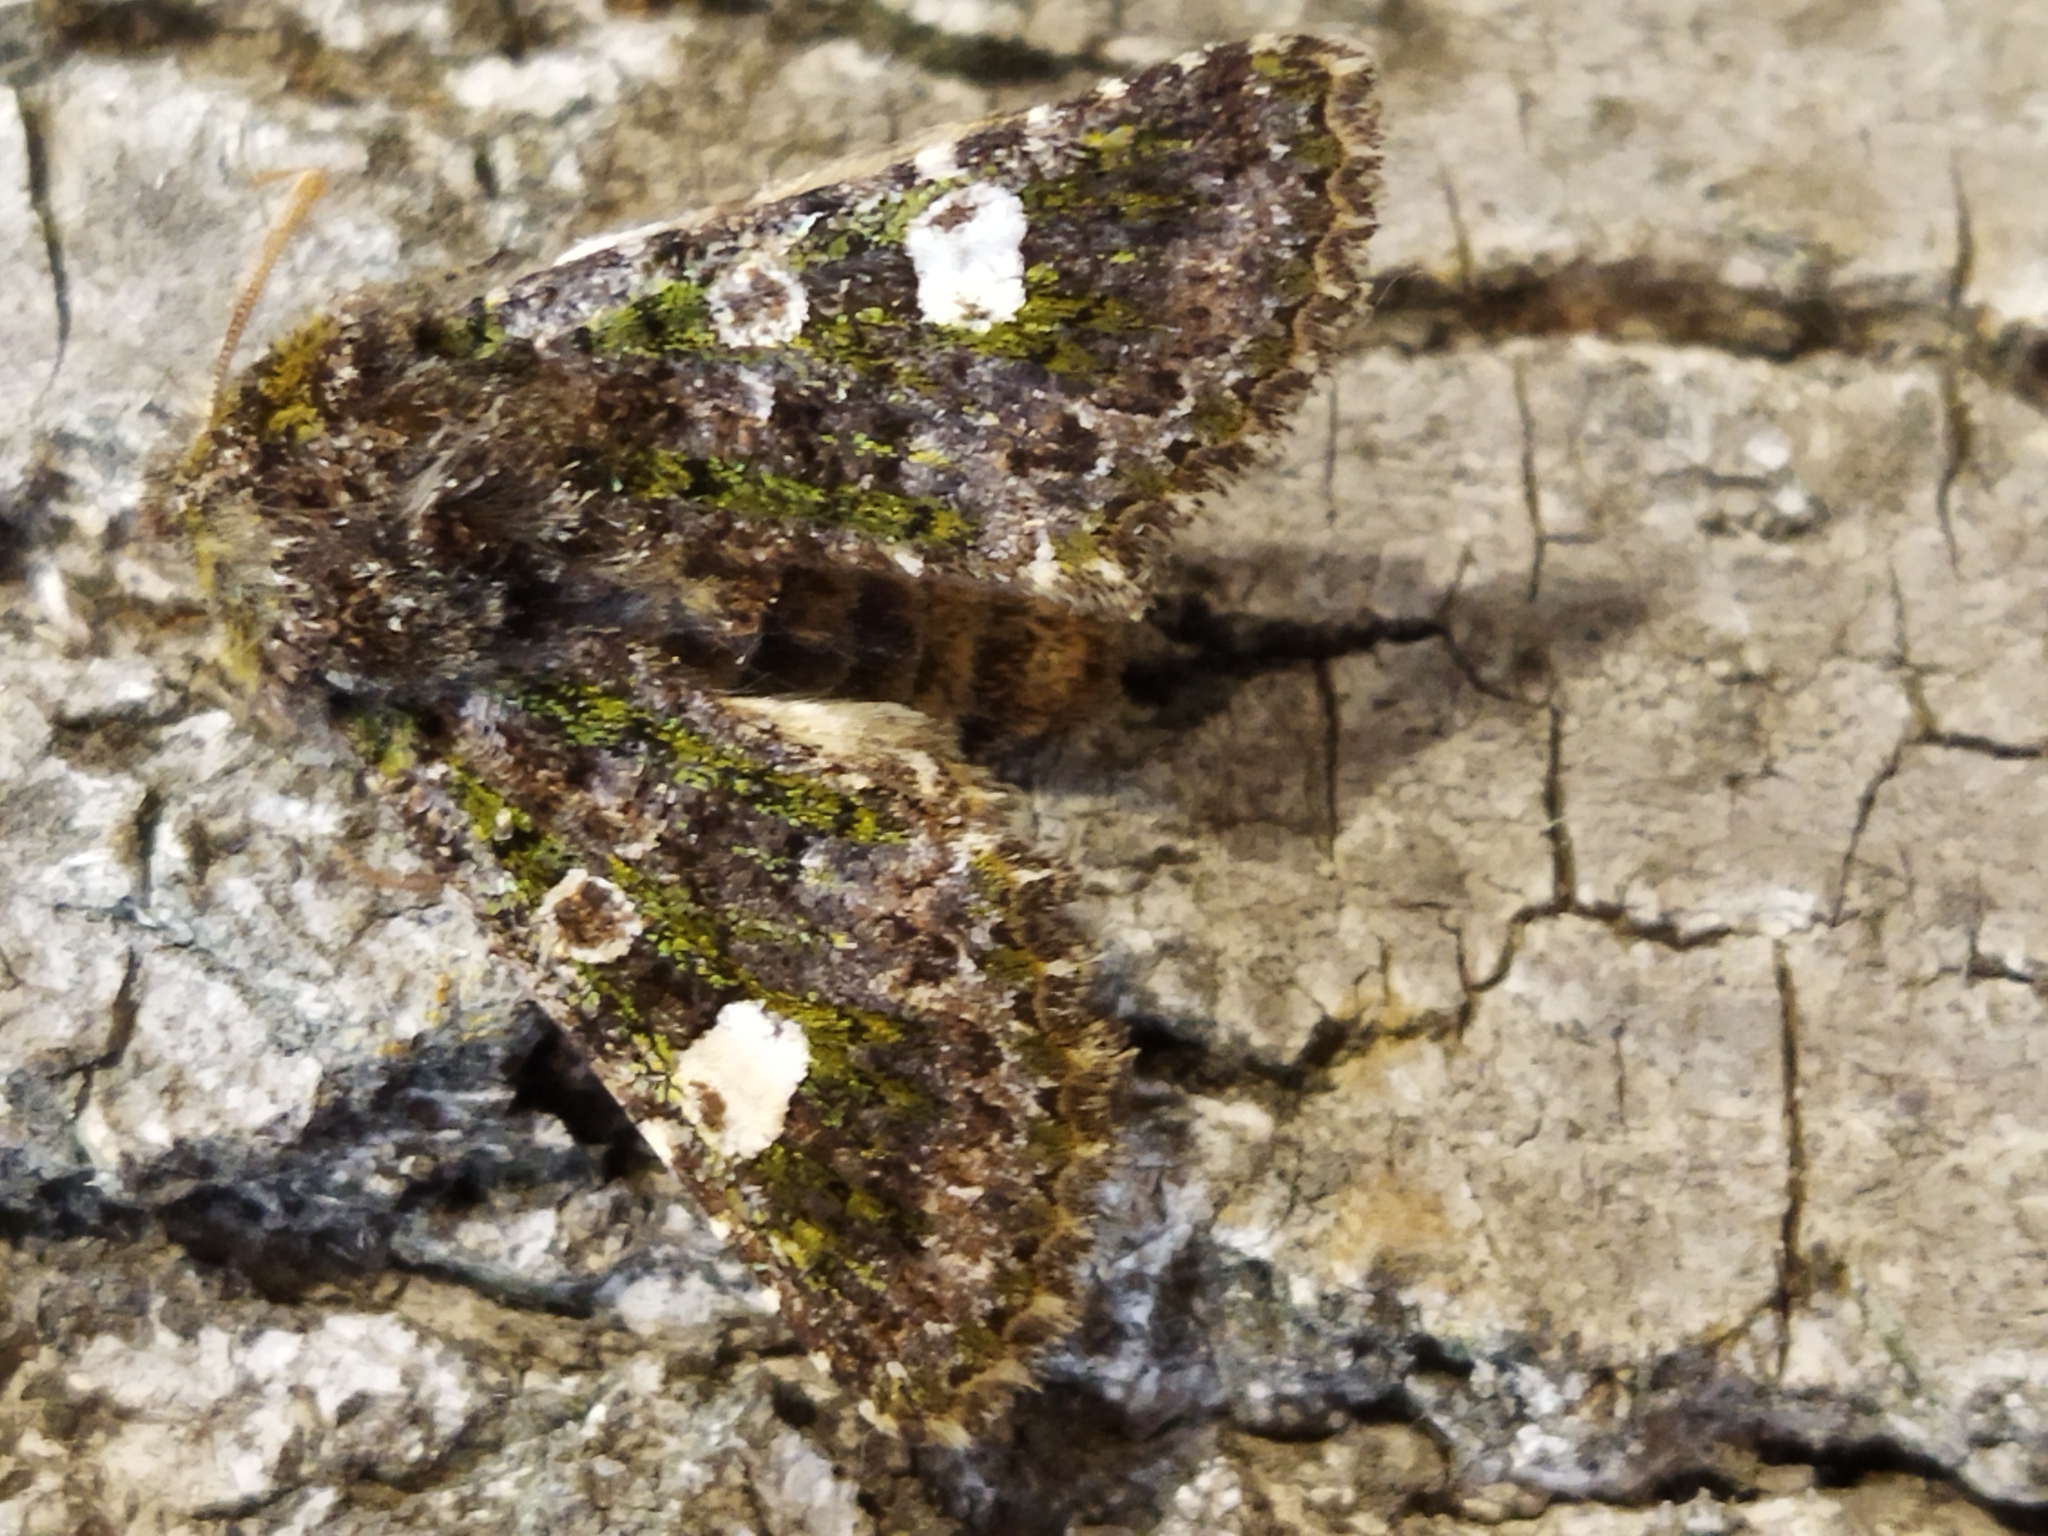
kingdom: Animalia
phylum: Arthropoda
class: Insecta
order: Lepidoptera
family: Noctuidae
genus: Valeria
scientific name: Valeria oleagina
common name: Green-brindled dot
